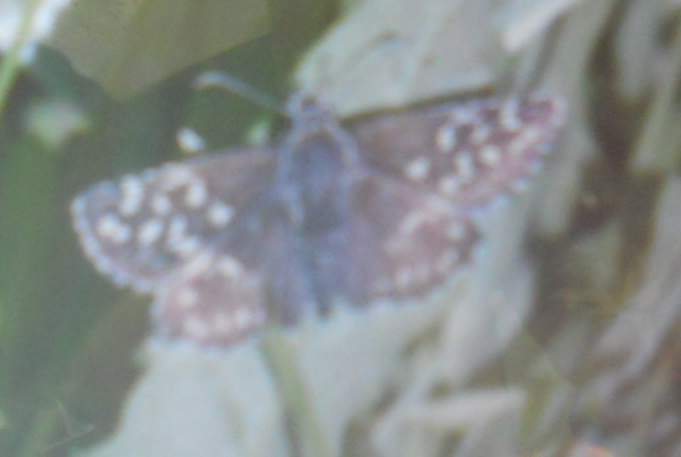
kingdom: Animalia
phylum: Arthropoda
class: Insecta
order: Lepidoptera
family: Hesperiidae
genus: Pyrgus
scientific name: Pyrgus malvae
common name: Grizzled skipper
